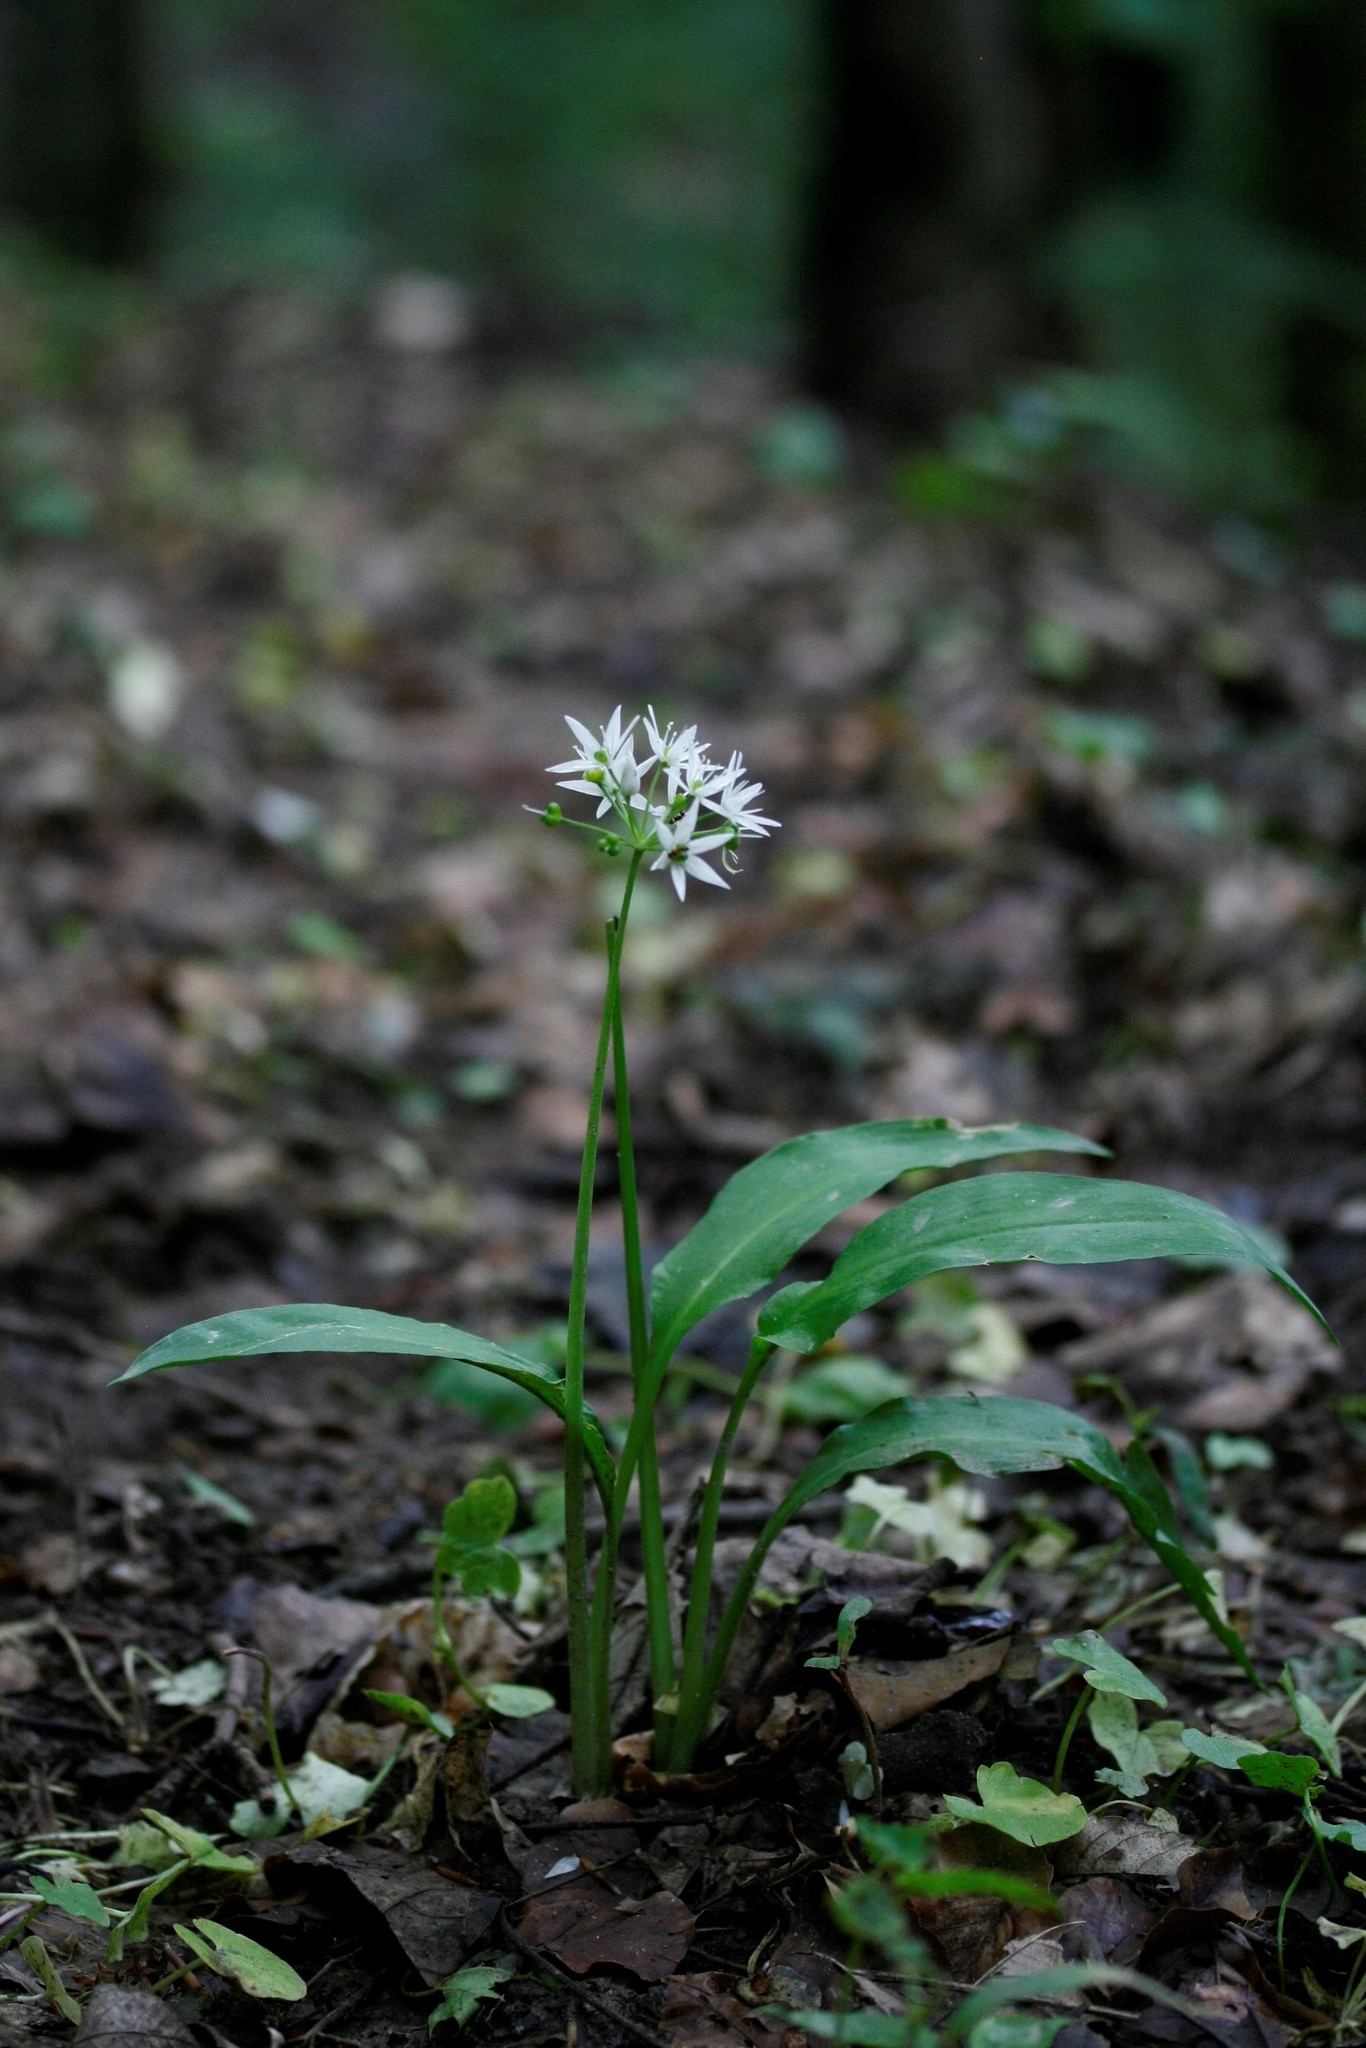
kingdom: Plantae
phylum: Tracheophyta
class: Liliopsida
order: Asparagales
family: Amaryllidaceae
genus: Allium
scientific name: Allium ursinum
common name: Ramsons
